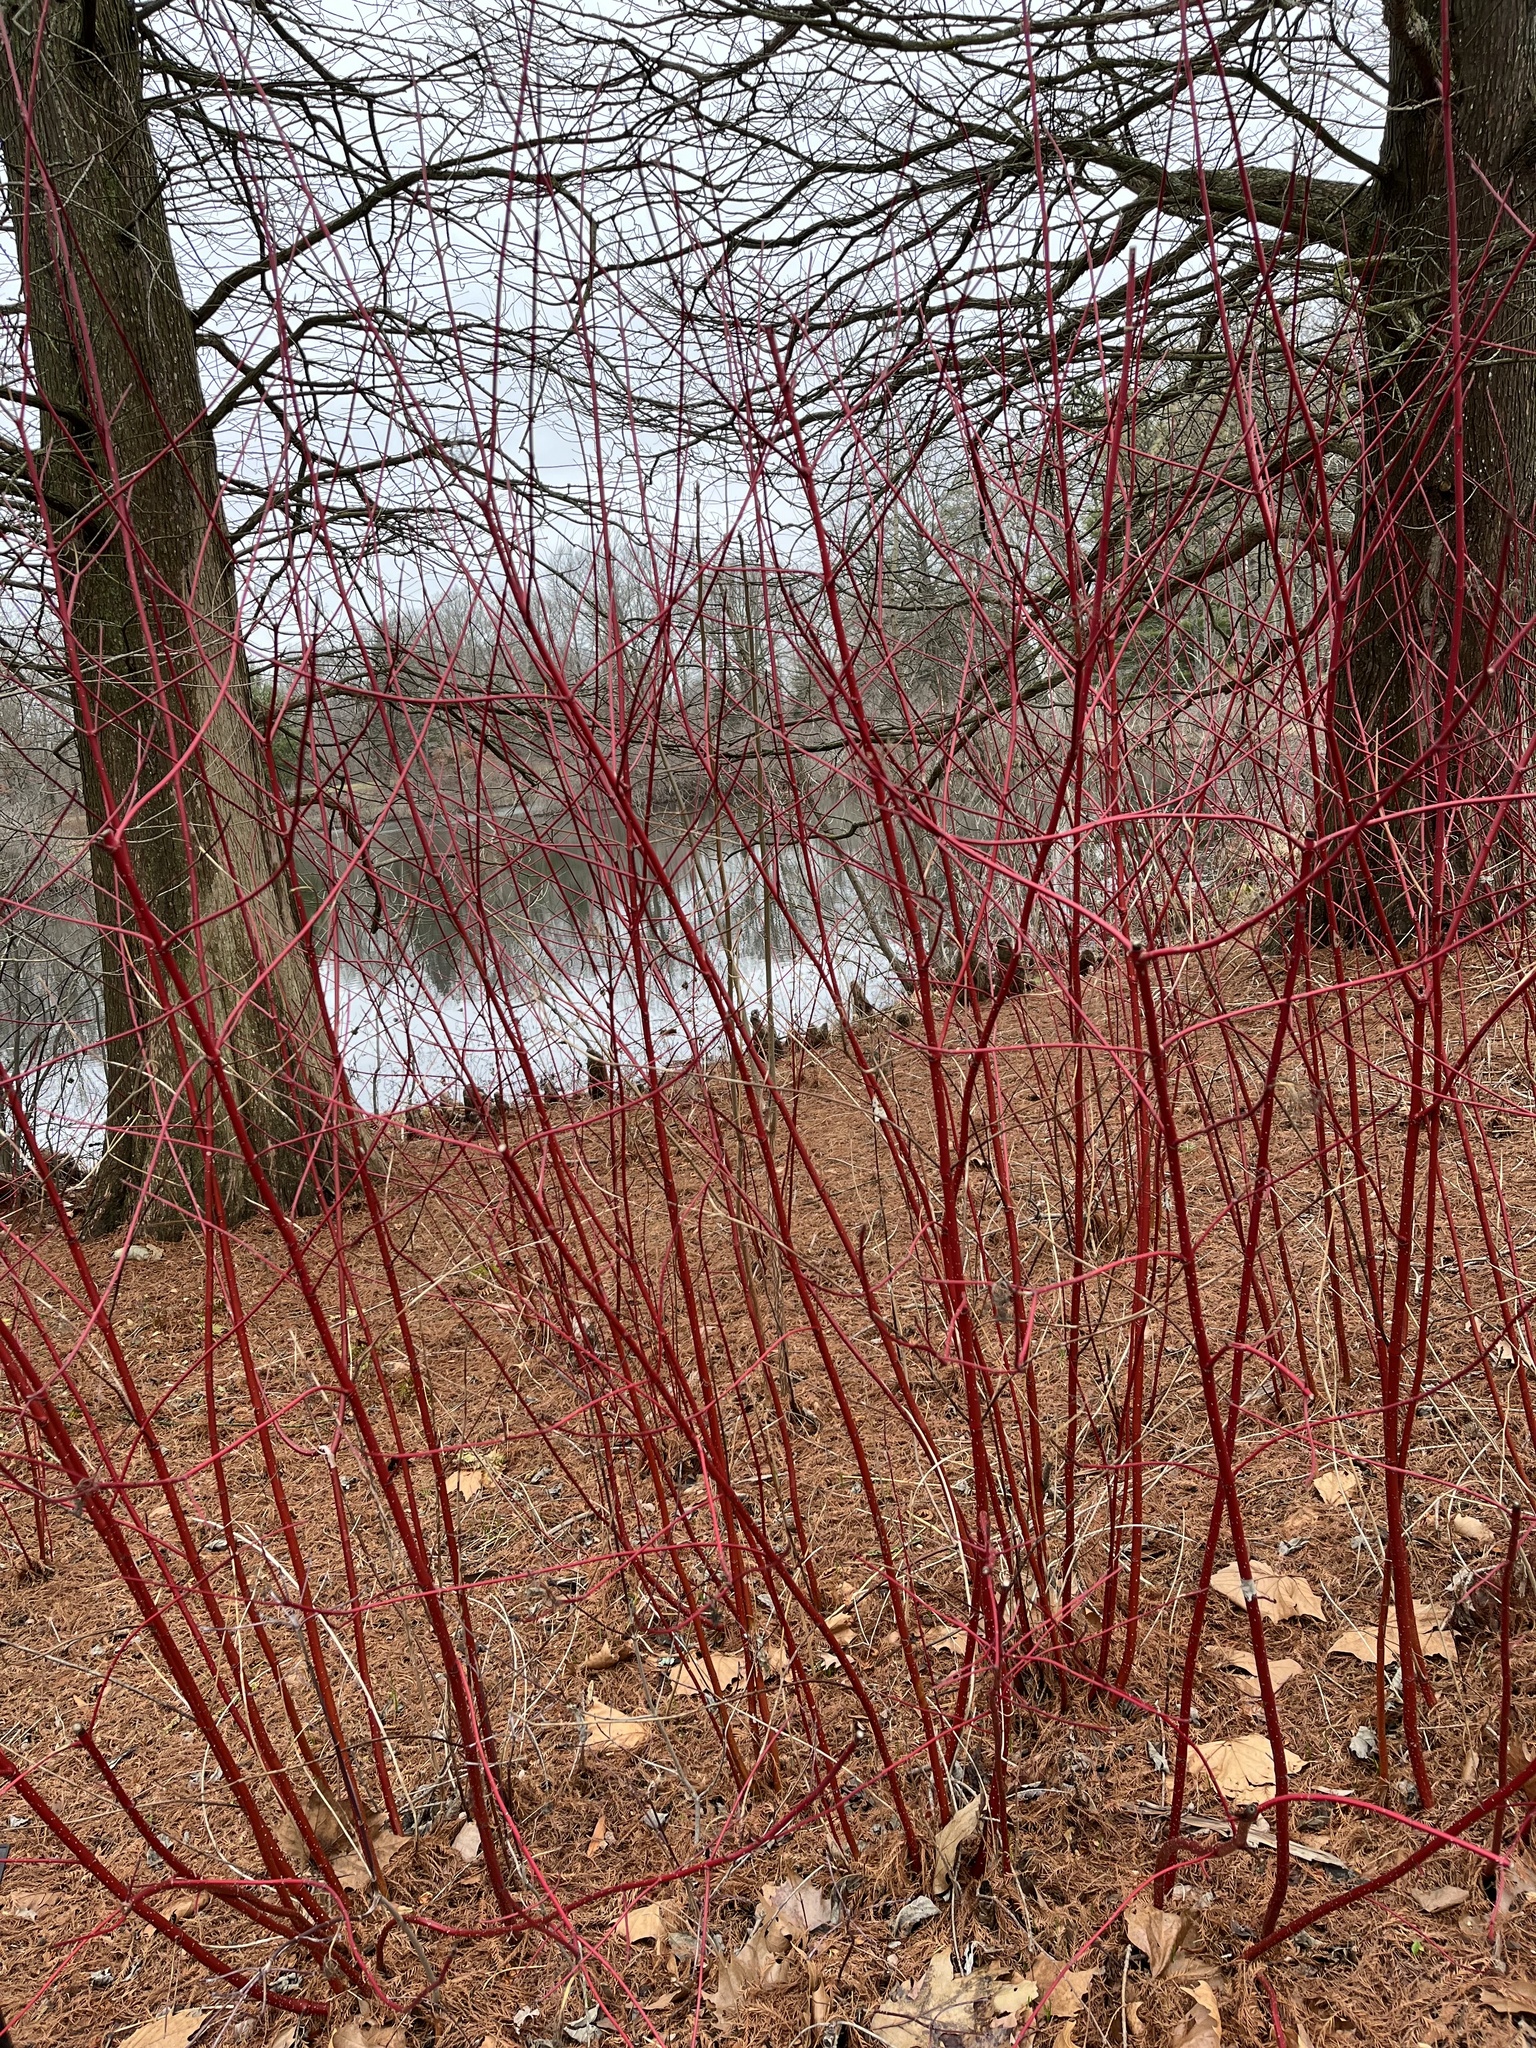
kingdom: Plantae
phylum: Tracheophyta
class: Magnoliopsida
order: Cornales
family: Cornaceae
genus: Cornus
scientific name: Cornus sericea
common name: Red-osier dogwood
